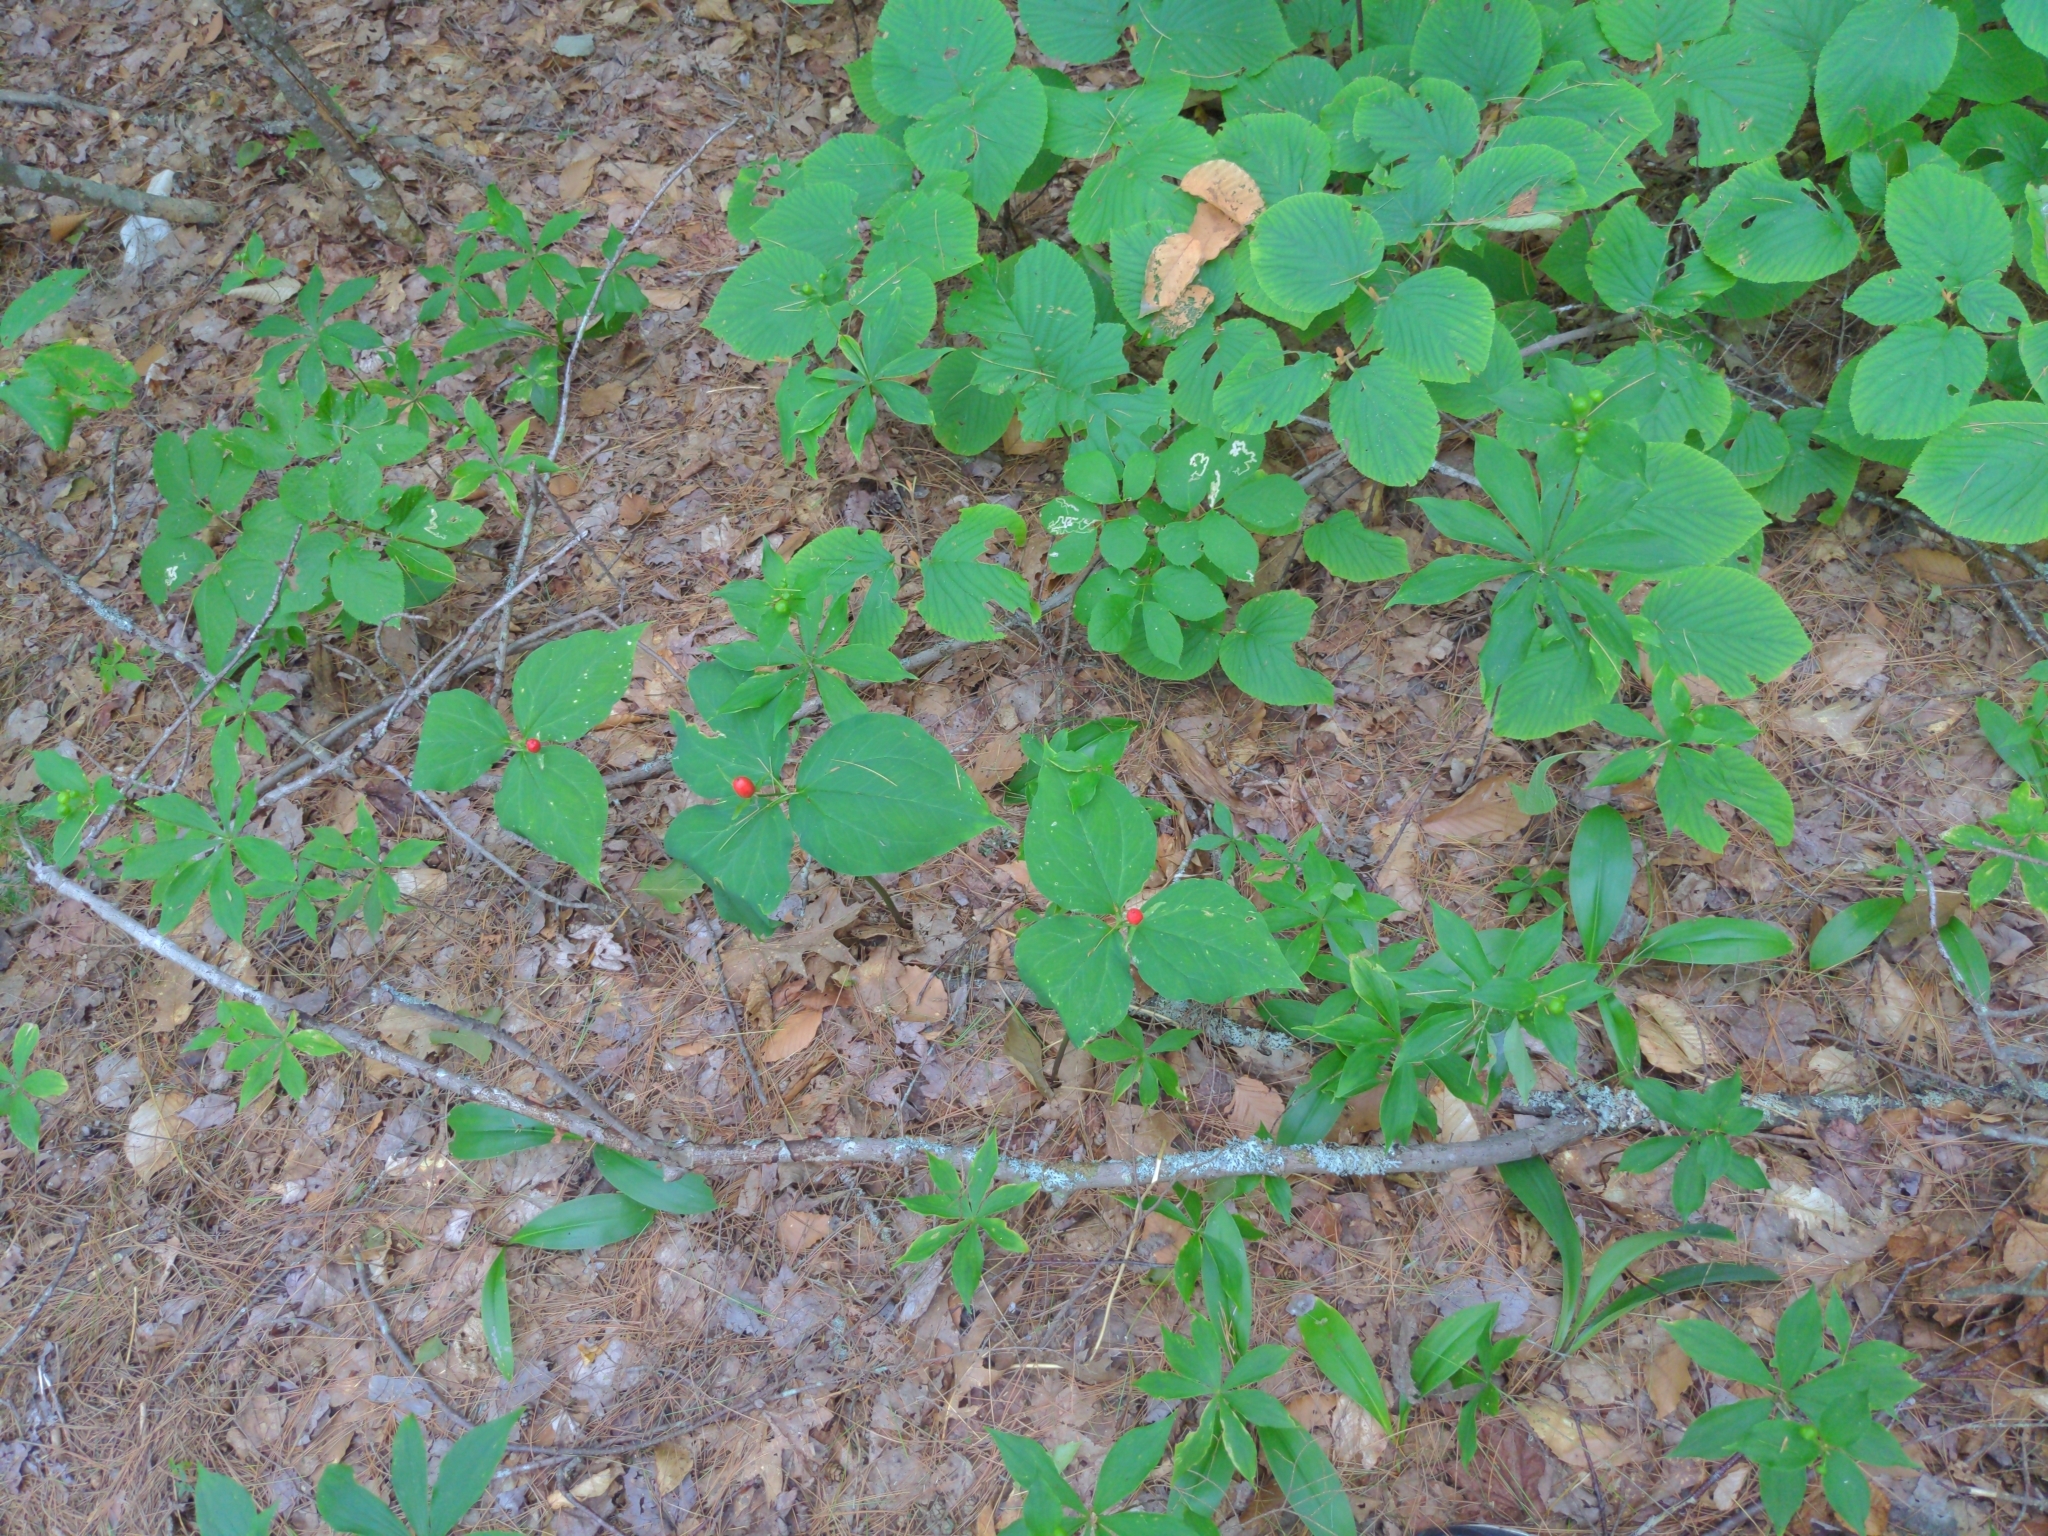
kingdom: Plantae
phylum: Tracheophyta
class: Liliopsida
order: Liliales
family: Melanthiaceae
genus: Trillium
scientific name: Trillium undulatum
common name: Paint trillium
